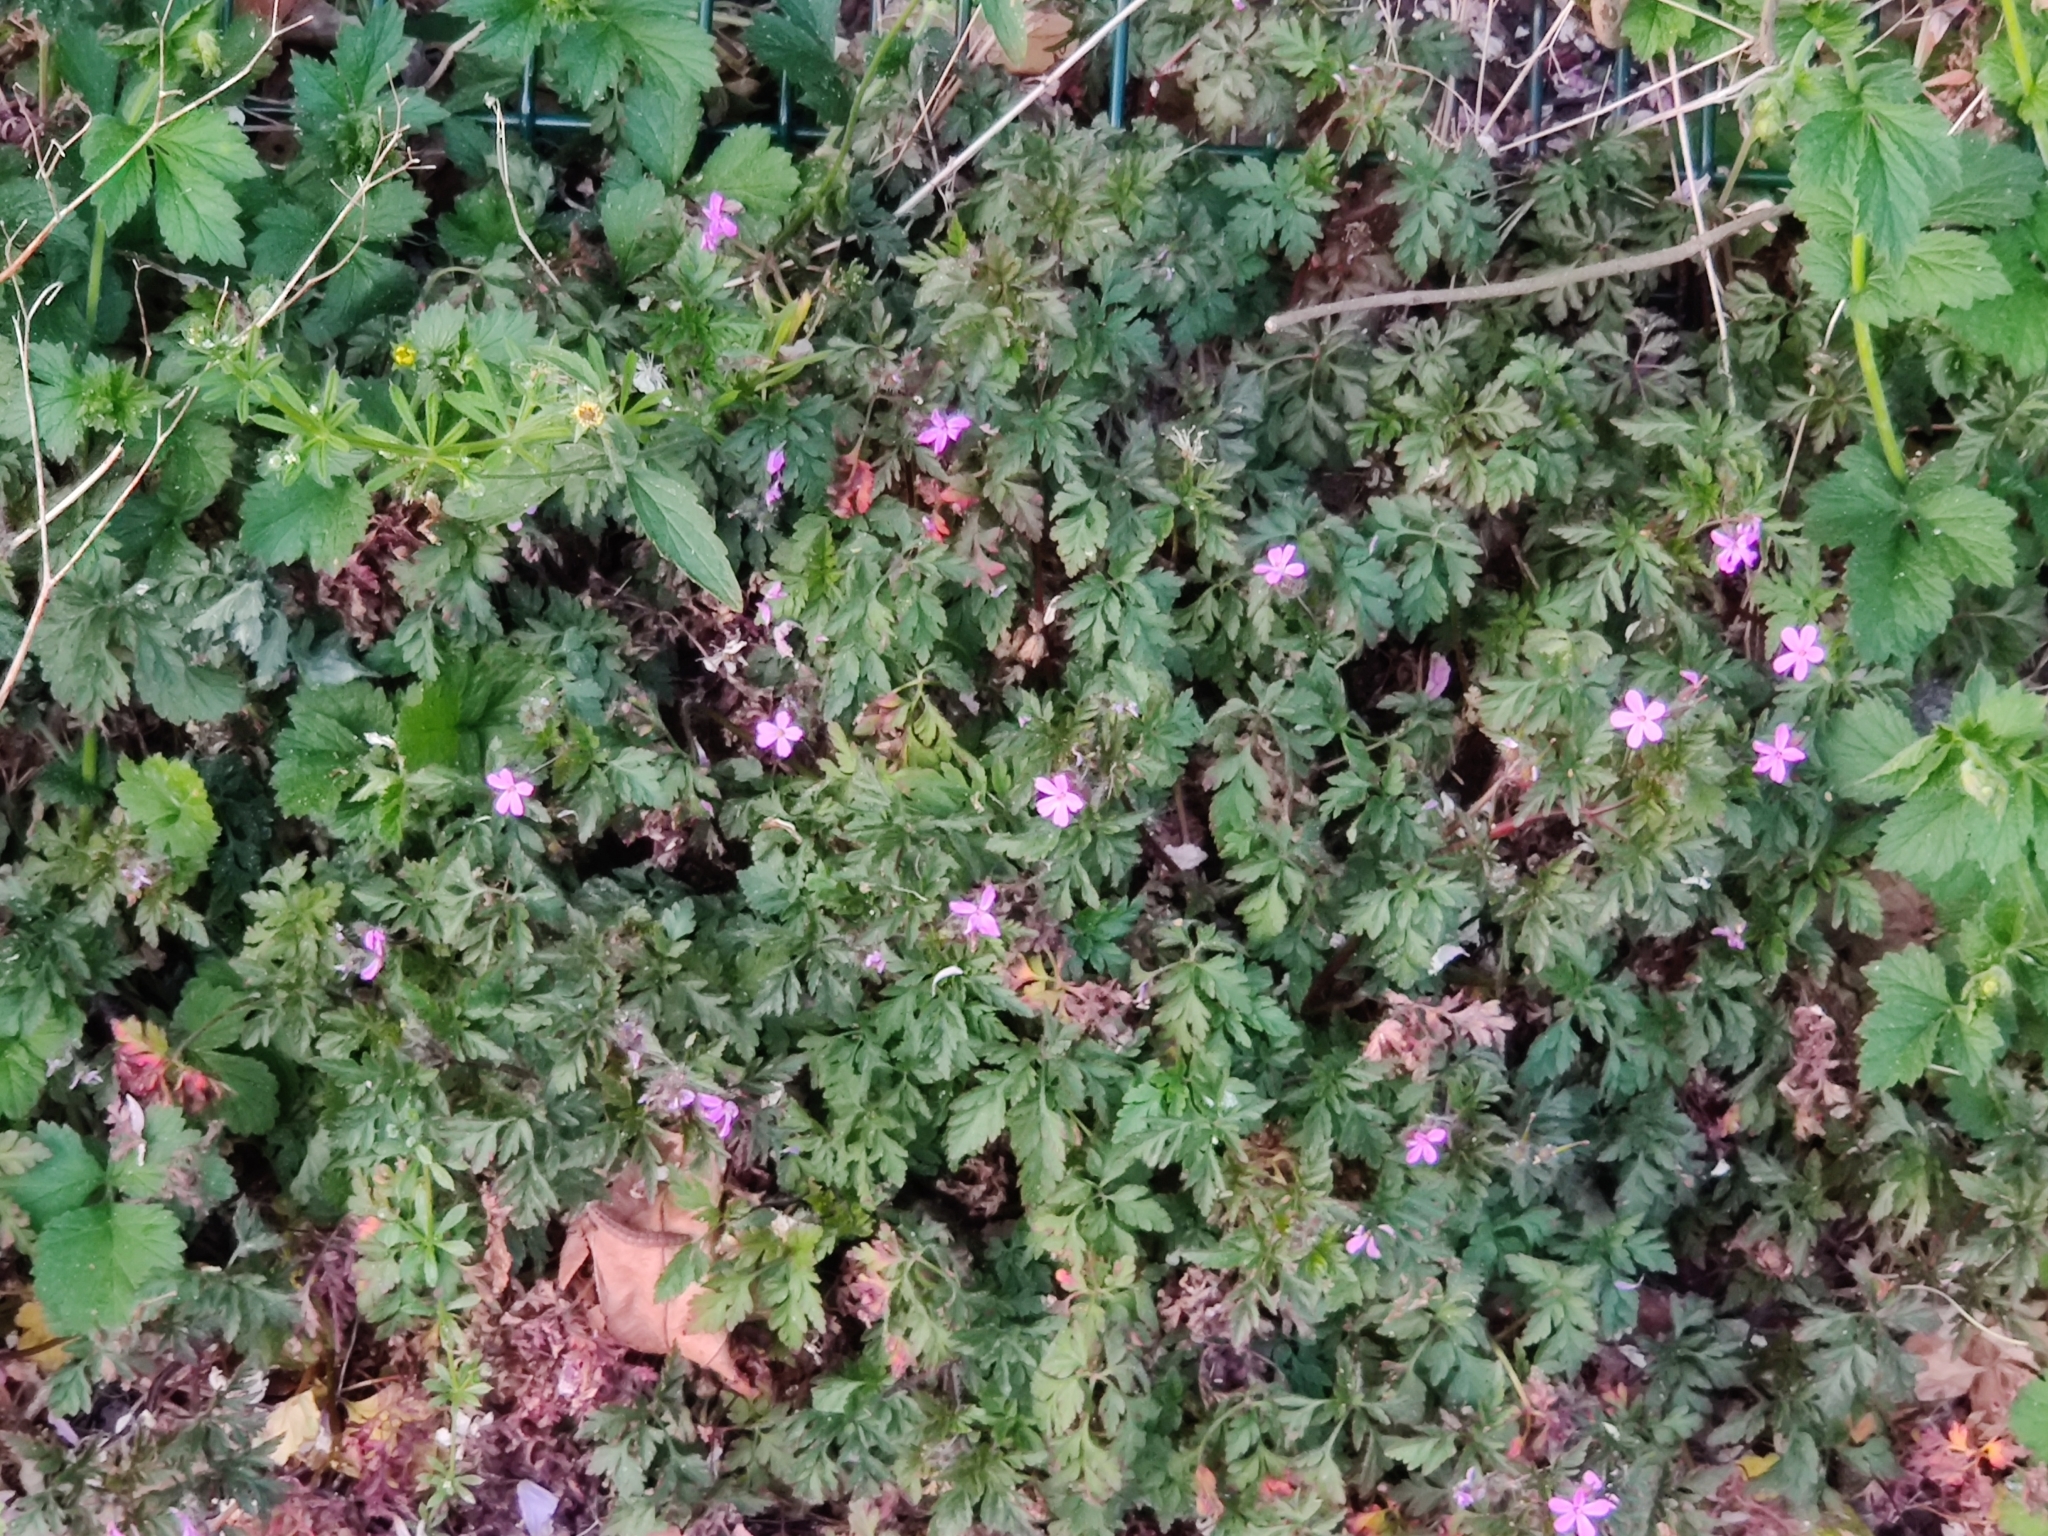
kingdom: Plantae
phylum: Tracheophyta
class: Magnoliopsida
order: Geraniales
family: Geraniaceae
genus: Geranium
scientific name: Geranium robertianum
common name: Herb-robert
